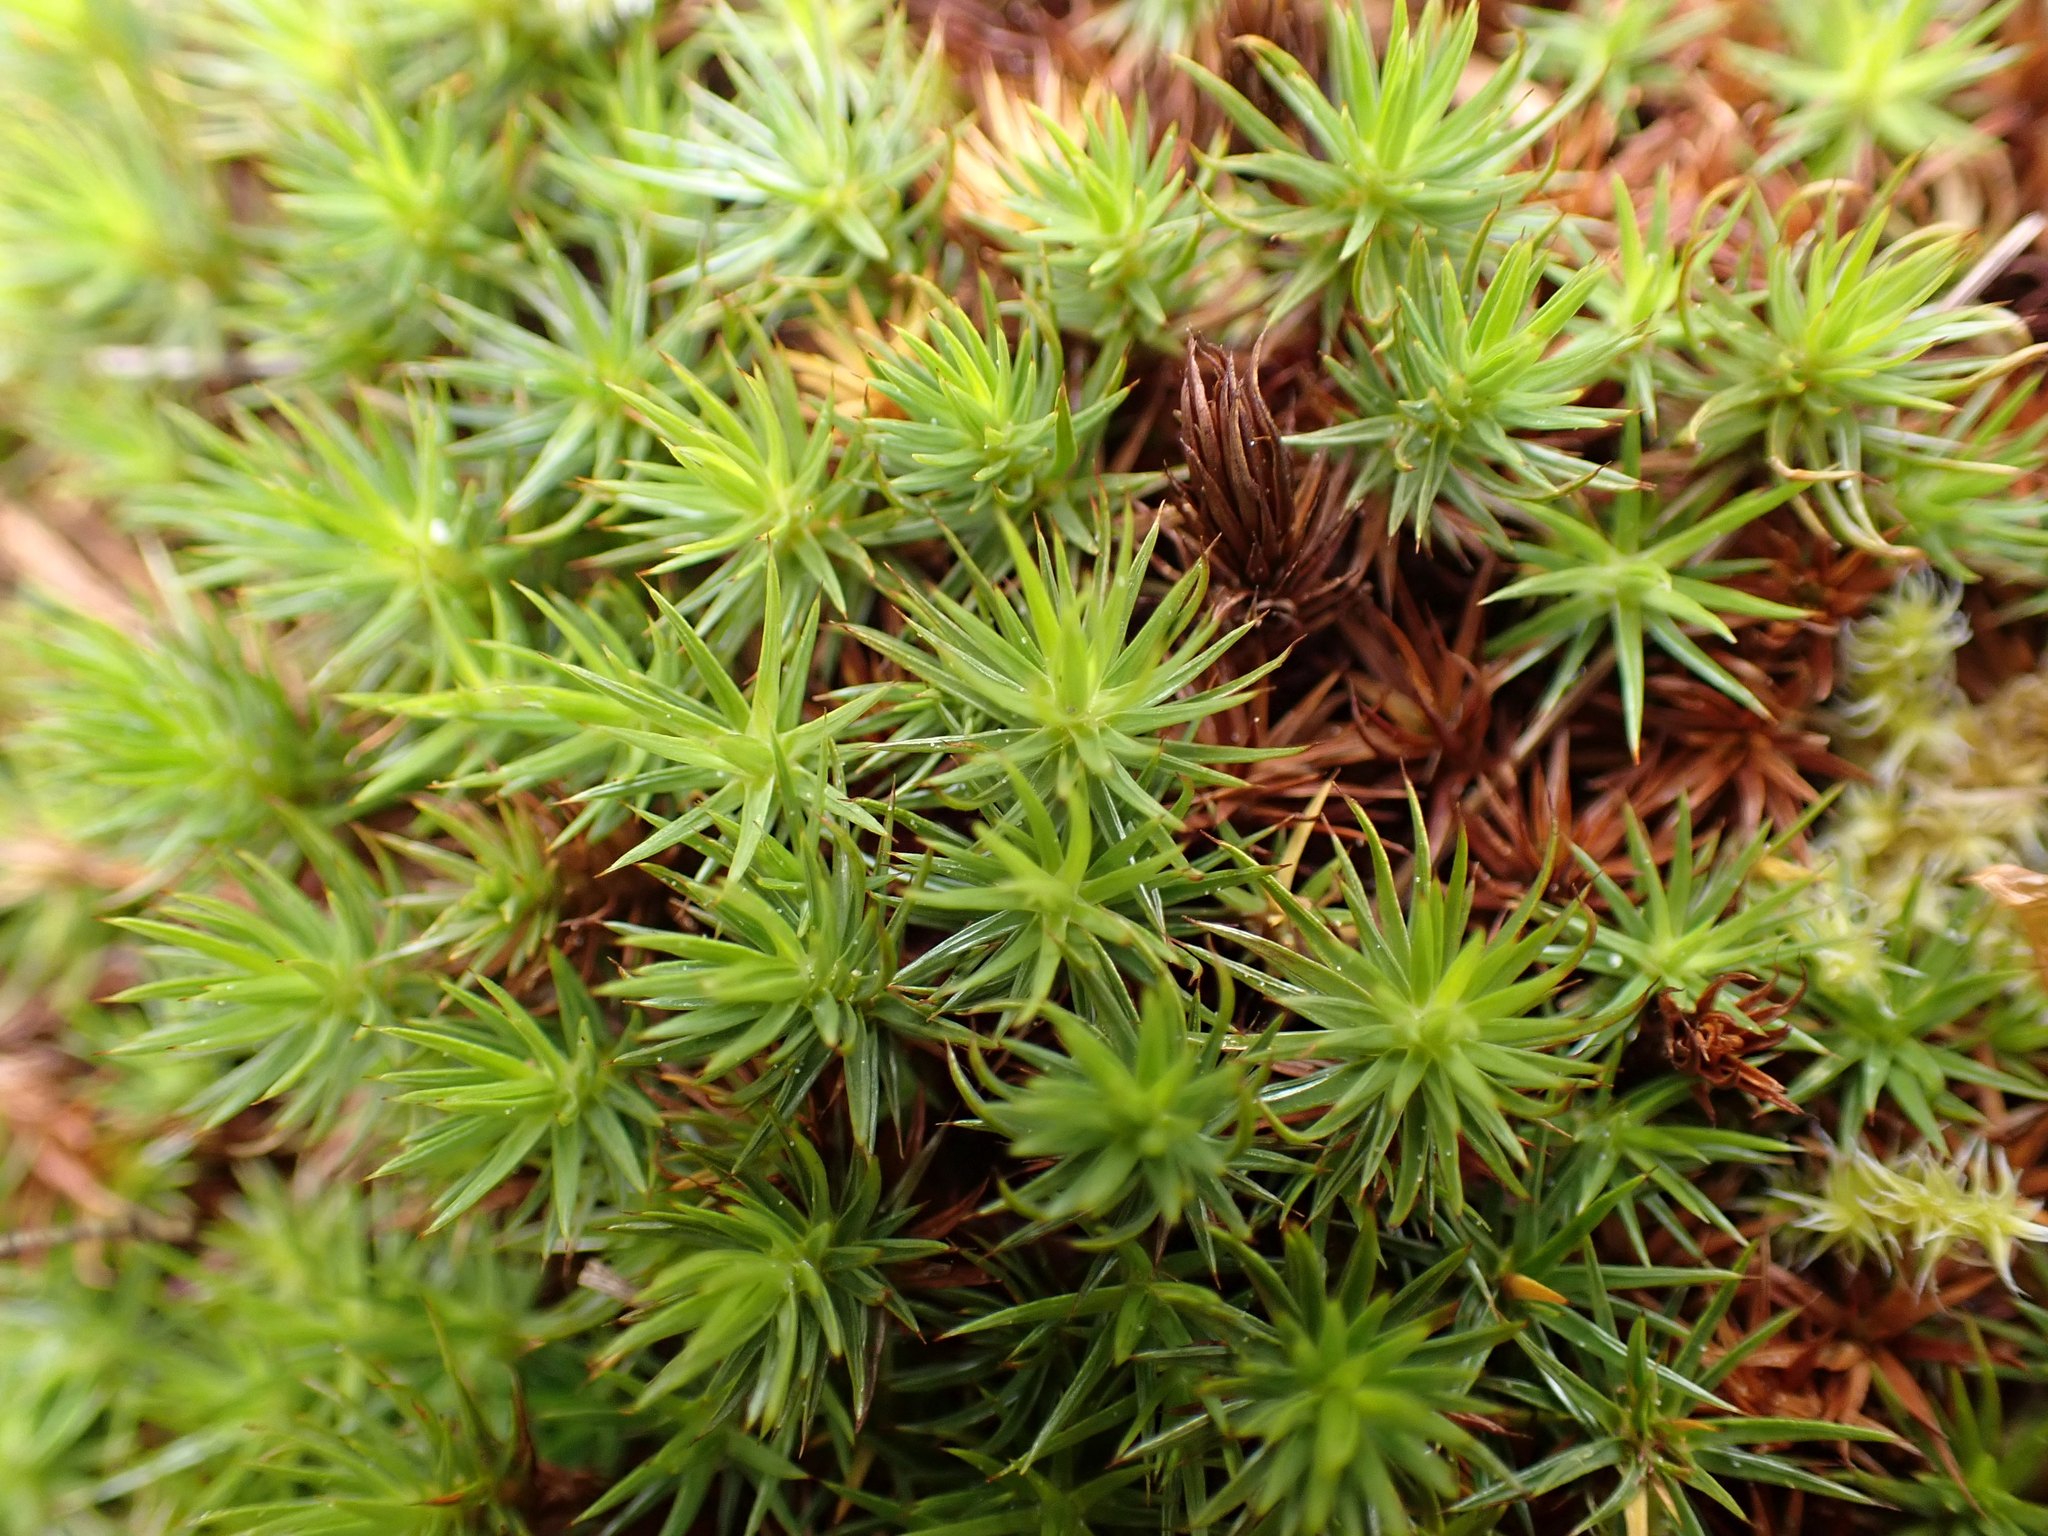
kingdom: Plantae
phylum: Bryophyta
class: Polytrichopsida
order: Polytrichales
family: Polytrichaceae
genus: Polytrichum
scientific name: Polytrichum juniperinum
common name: Juniper haircap moss
